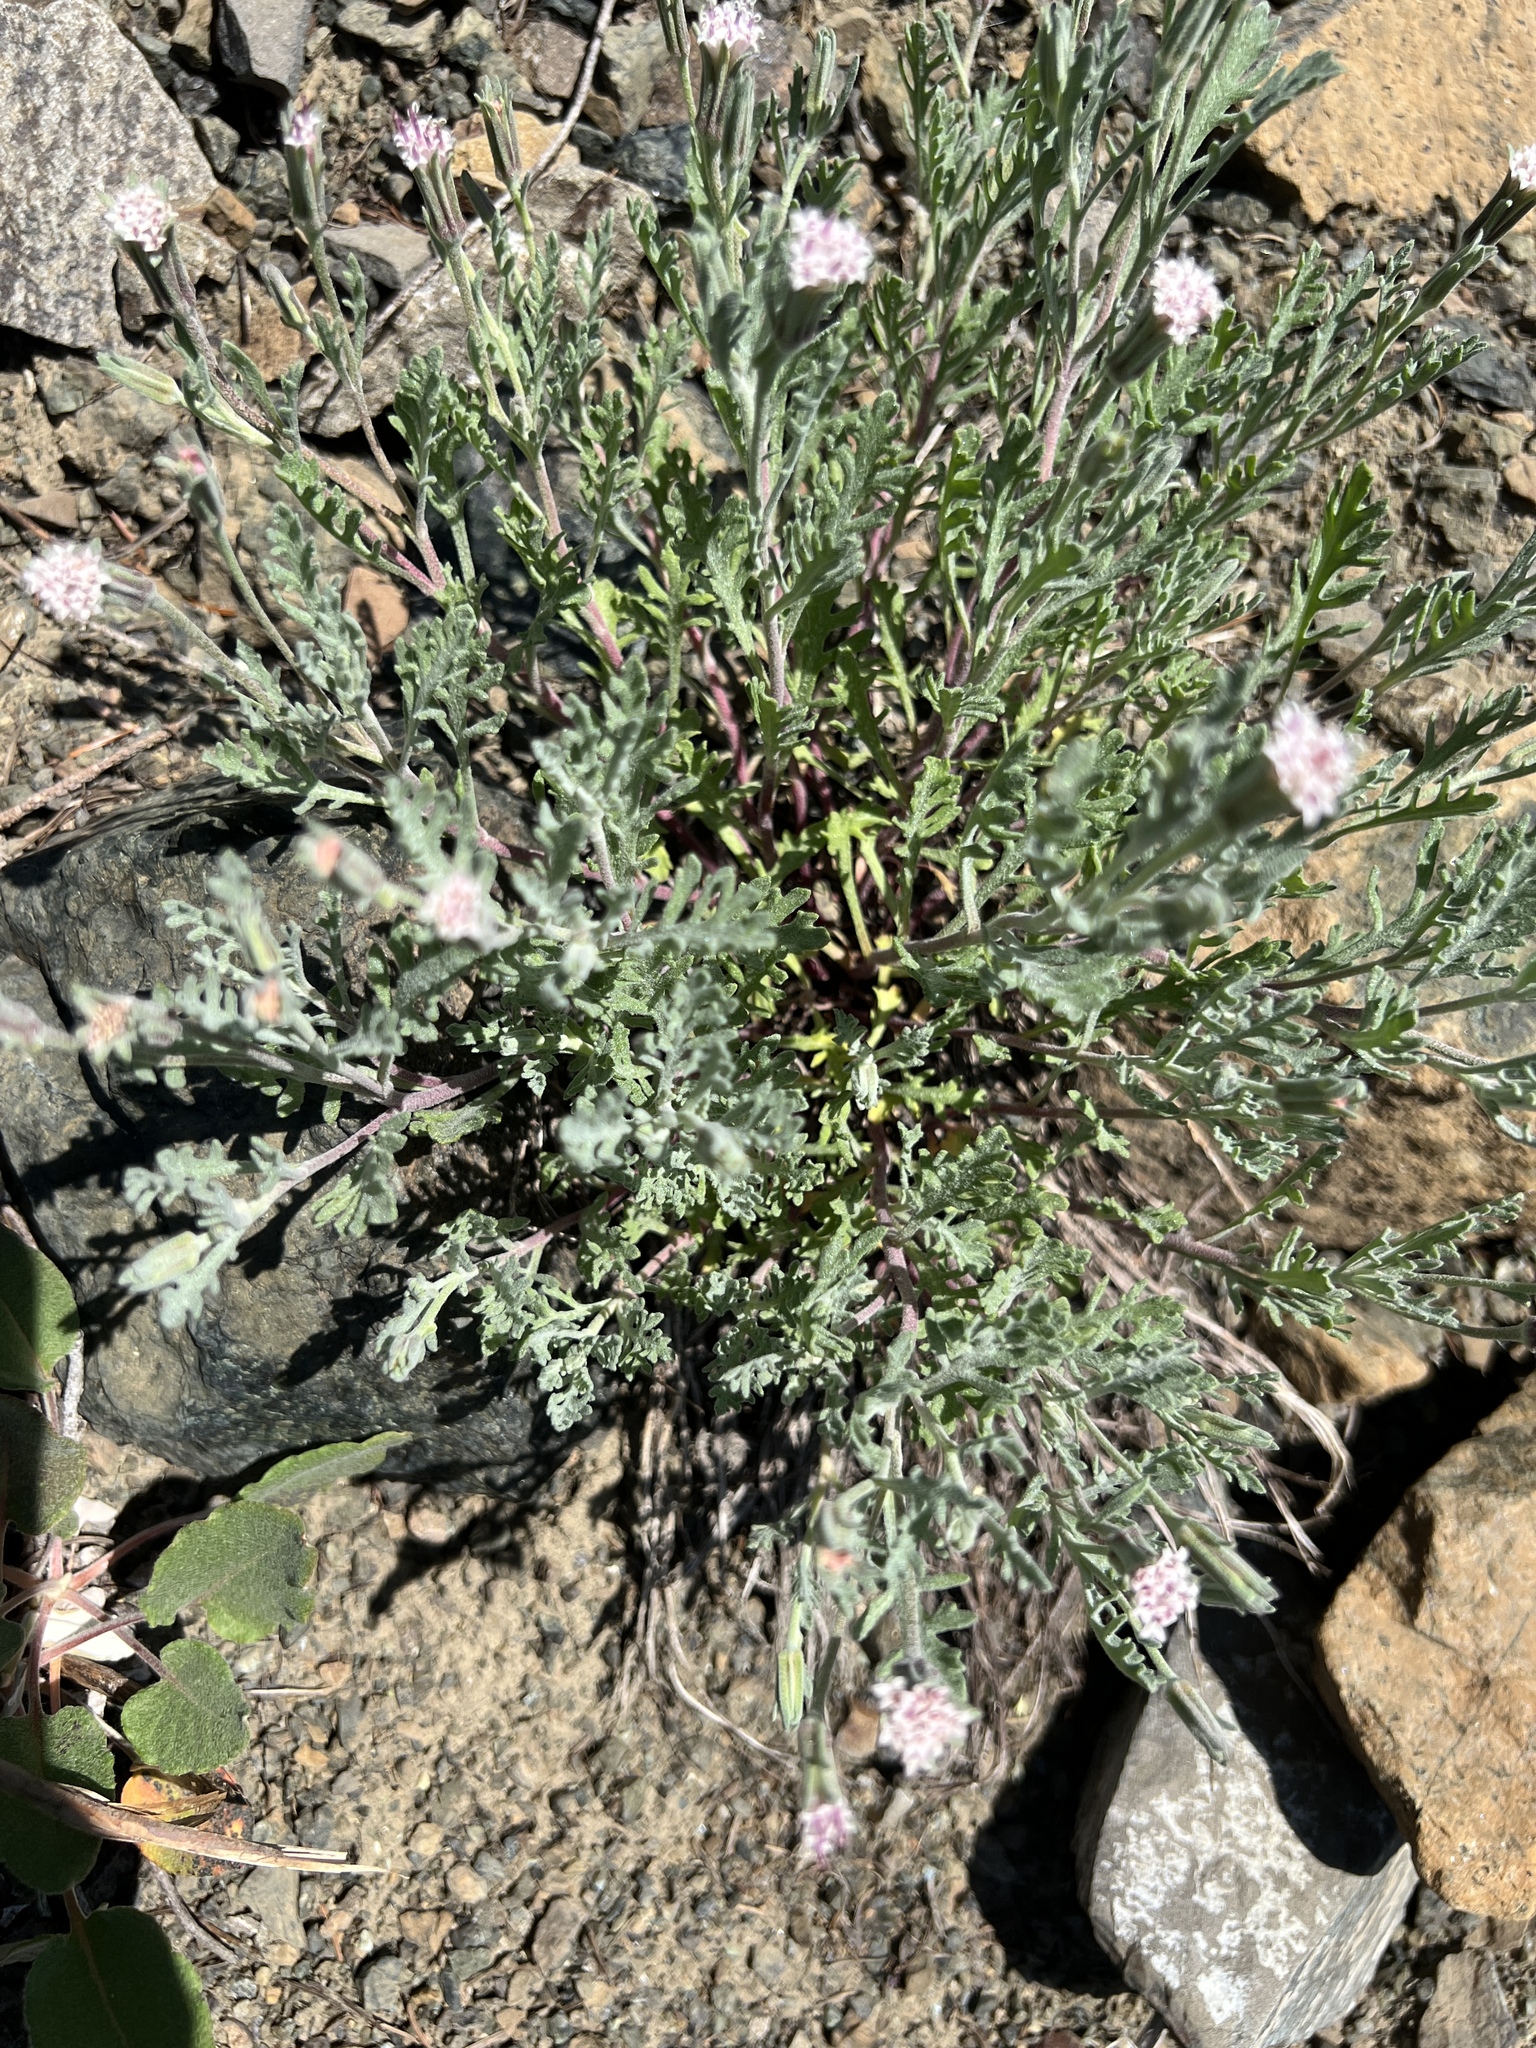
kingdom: Plantae
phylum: Tracheophyta
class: Magnoliopsida
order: Asterales
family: Asteraceae
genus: Chaenactis
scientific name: Chaenactis thompsonii
